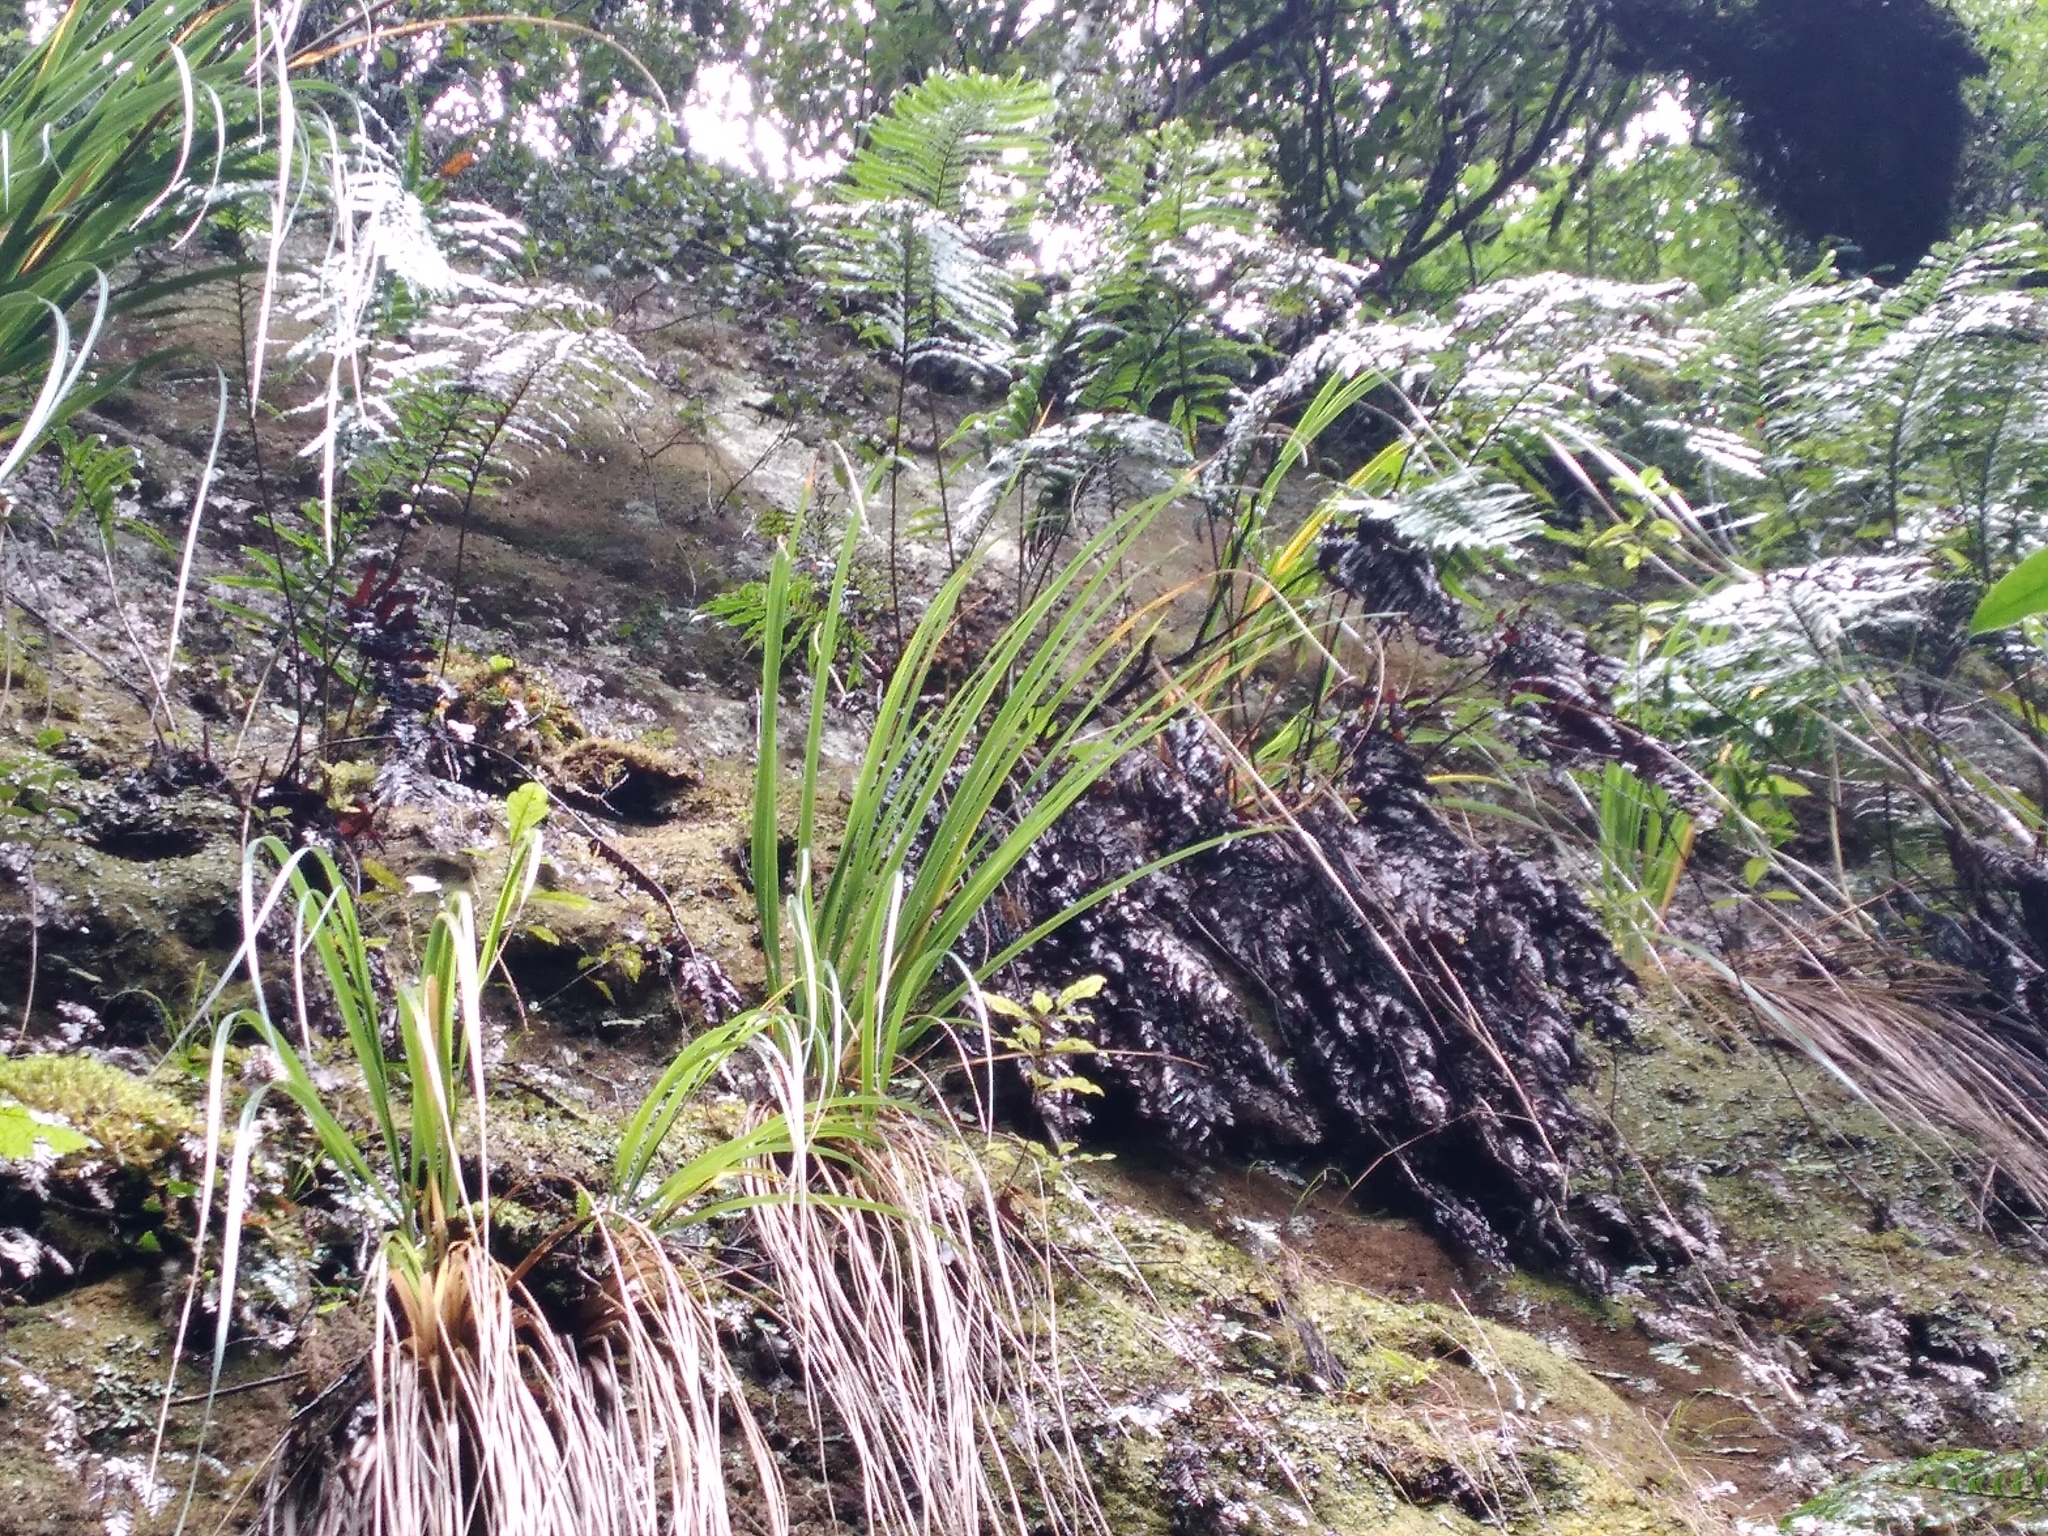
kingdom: Plantae
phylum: Tracheophyta
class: Polypodiopsida
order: Polypodiales
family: Blechnaceae
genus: Parablechnum
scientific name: Parablechnum triangularifolium
